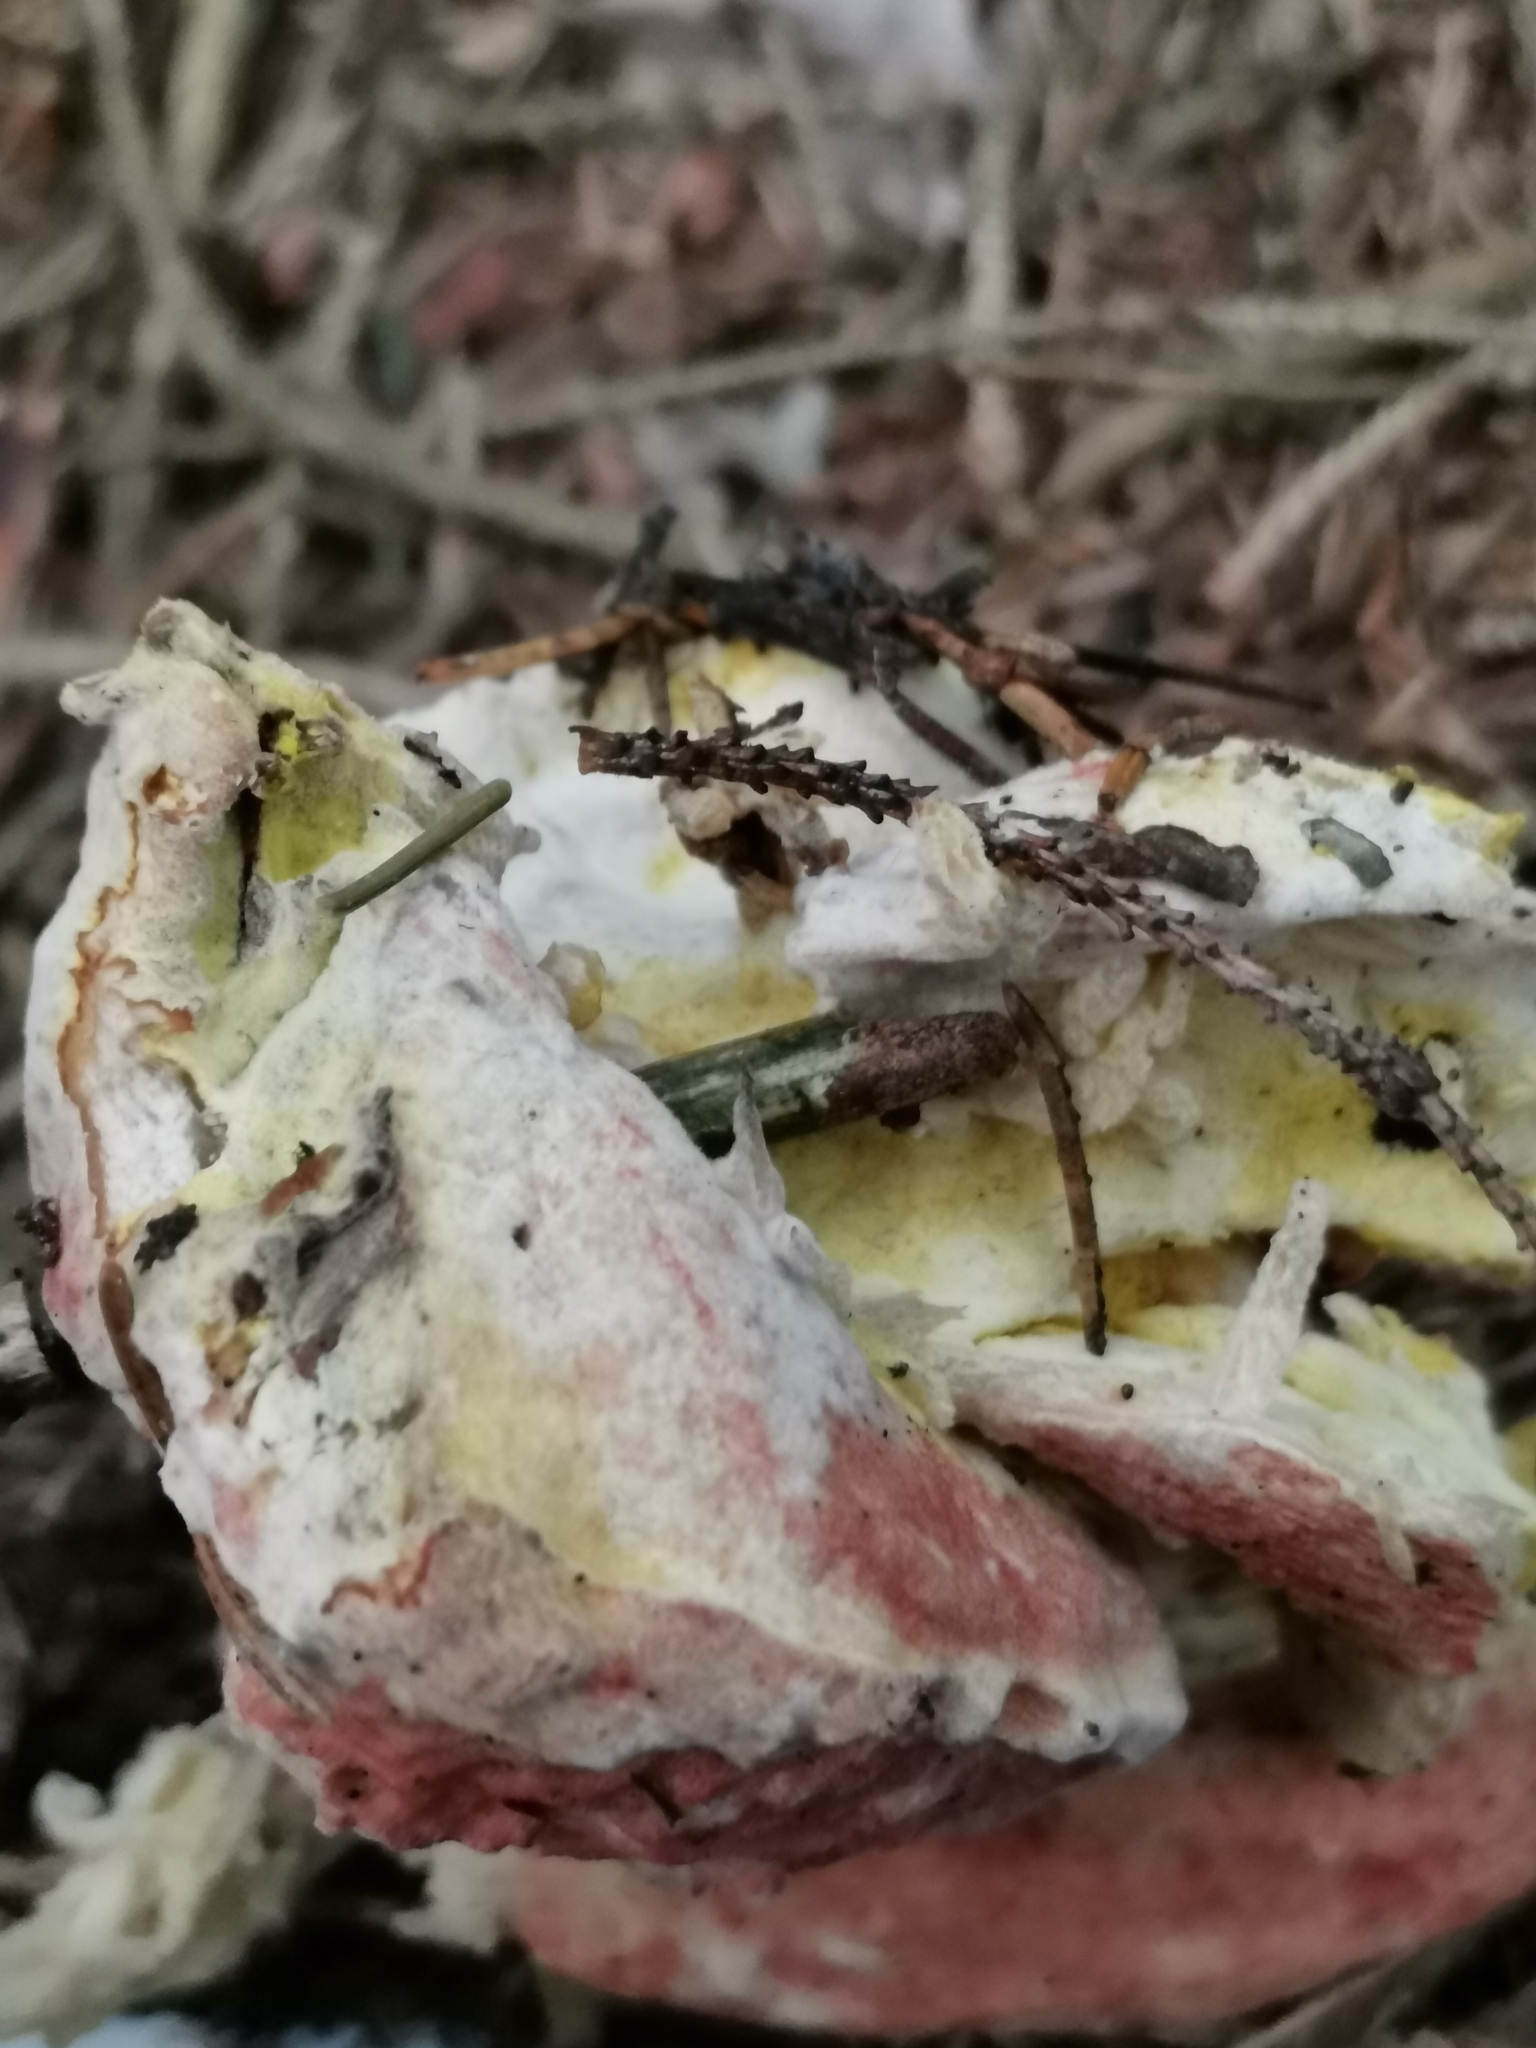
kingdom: Fungi
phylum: Ascomycota
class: Sordariomycetes
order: Hypocreales
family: Hypocreaceae
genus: Hypomyces
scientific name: Hypomyces
